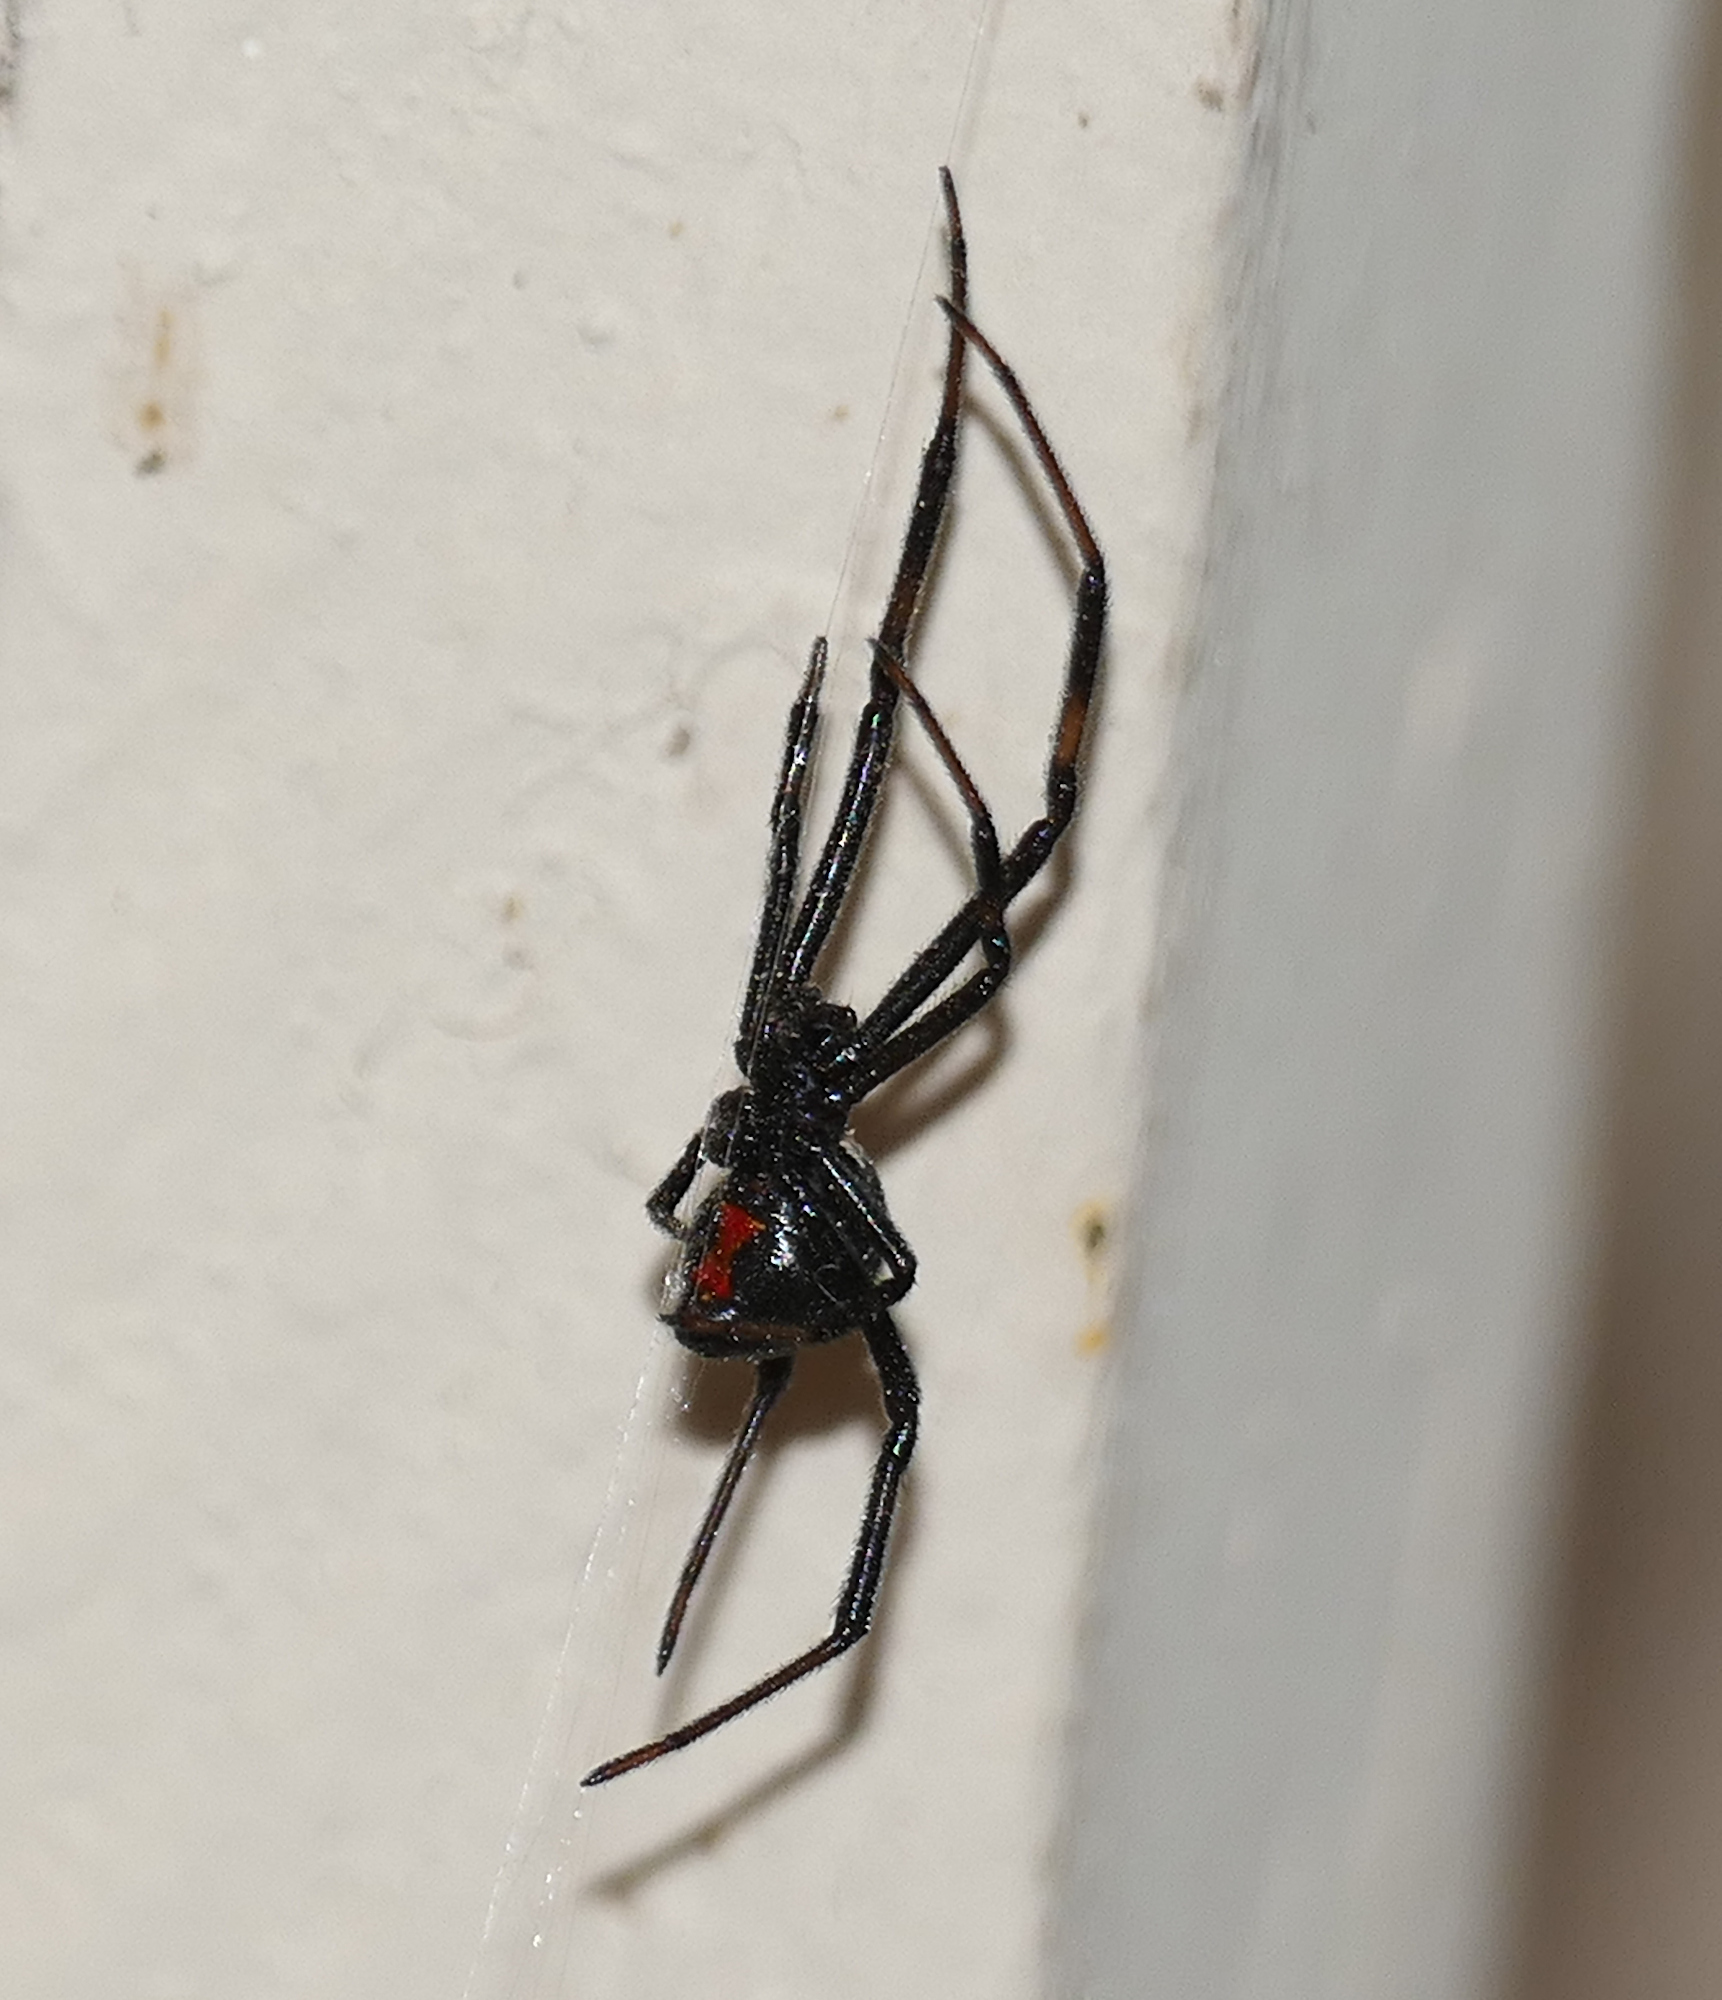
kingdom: Animalia
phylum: Arthropoda
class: Arachnida
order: Araneae
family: Theridiidae
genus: Latrodectus
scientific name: Latrodectus hesperus
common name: Western black widow
